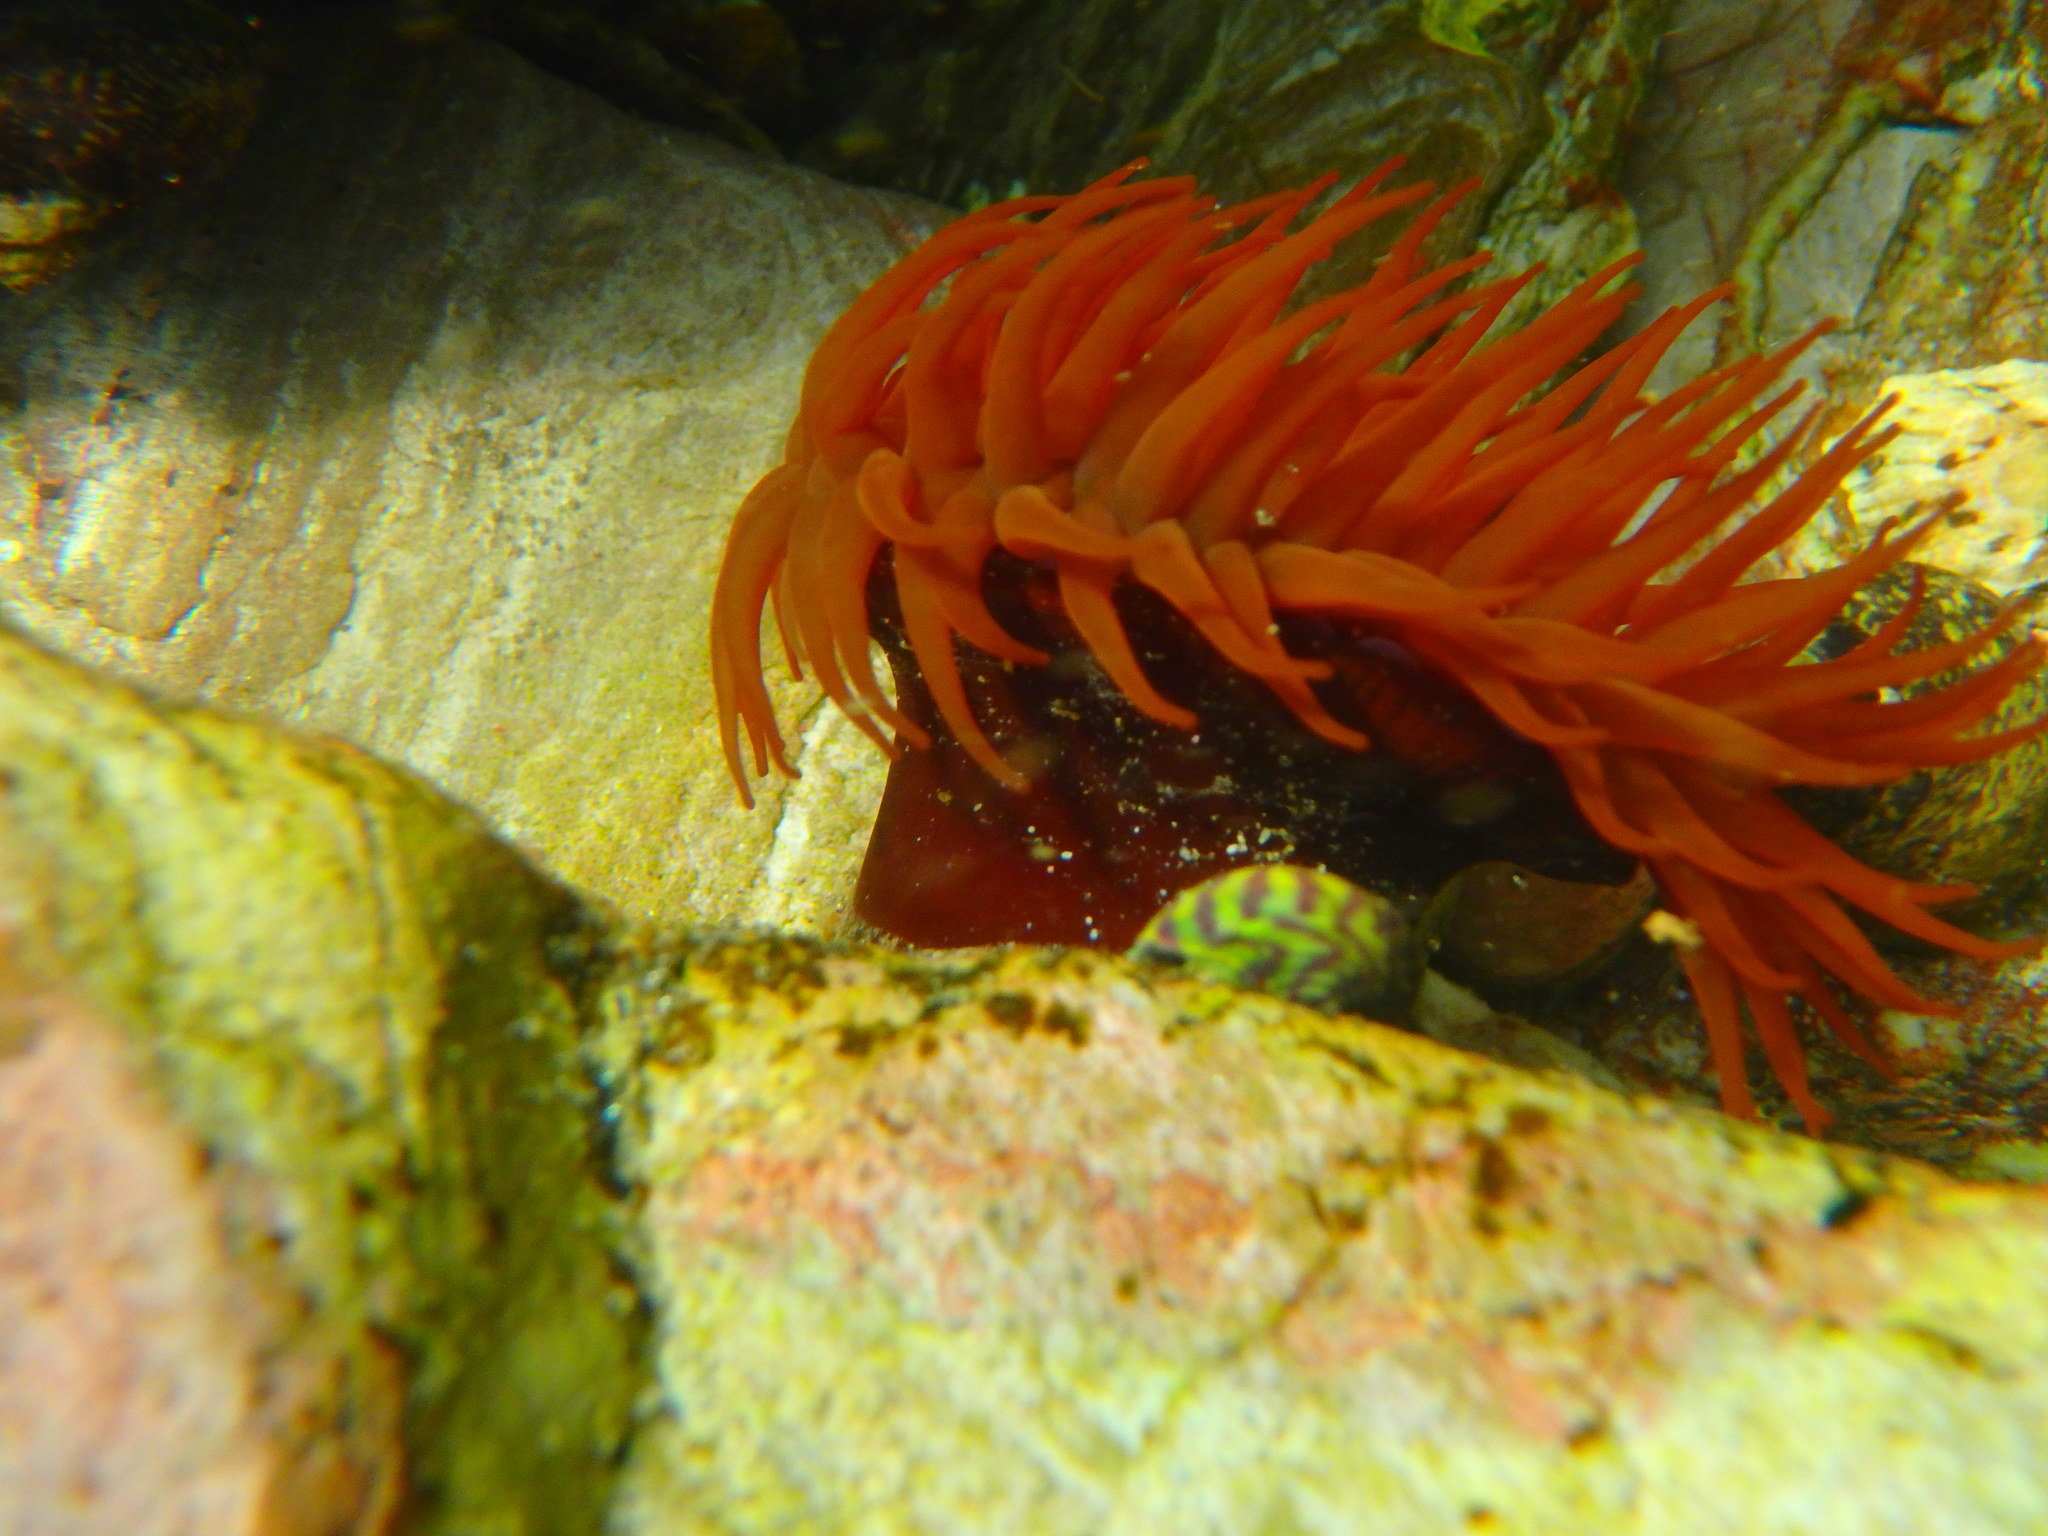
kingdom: Animalia
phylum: Cnidaria
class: Anthozoa
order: Actiniaria
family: Actiniidae
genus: Actinia
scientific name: Actinia equina
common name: Beadlet anemone
